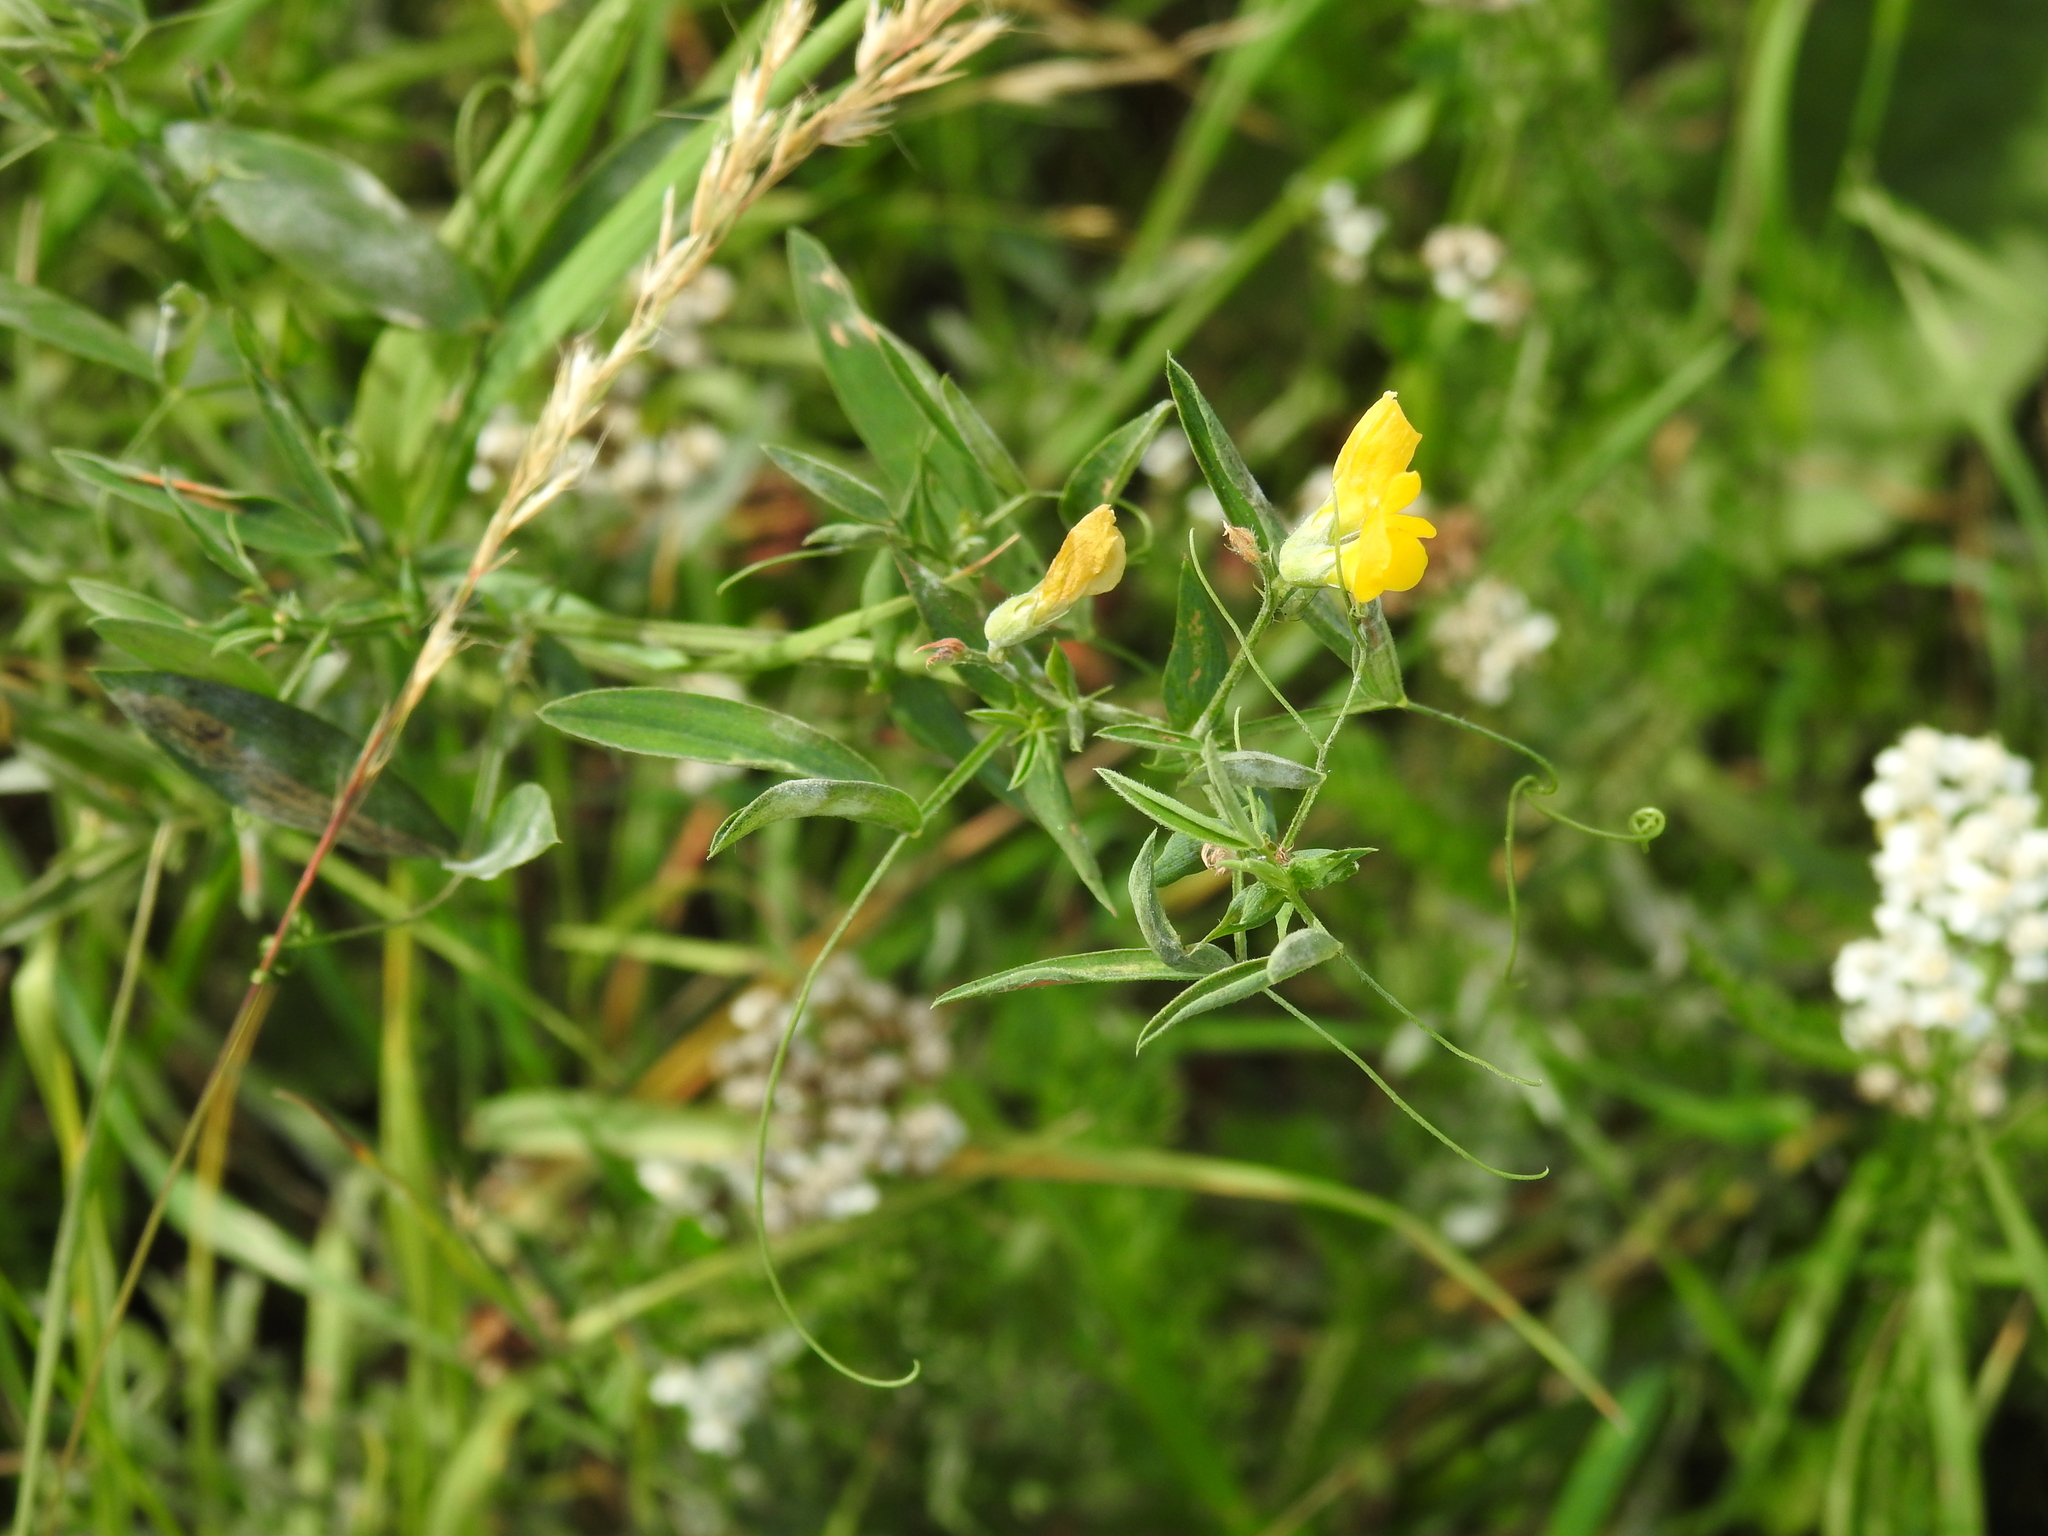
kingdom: Plantae
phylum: Tracheophyta
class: Magnoliopsida
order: Fabales
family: Fabaceae
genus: Lathyrus
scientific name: Lathyrus pratensis
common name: Meadow vetchling
